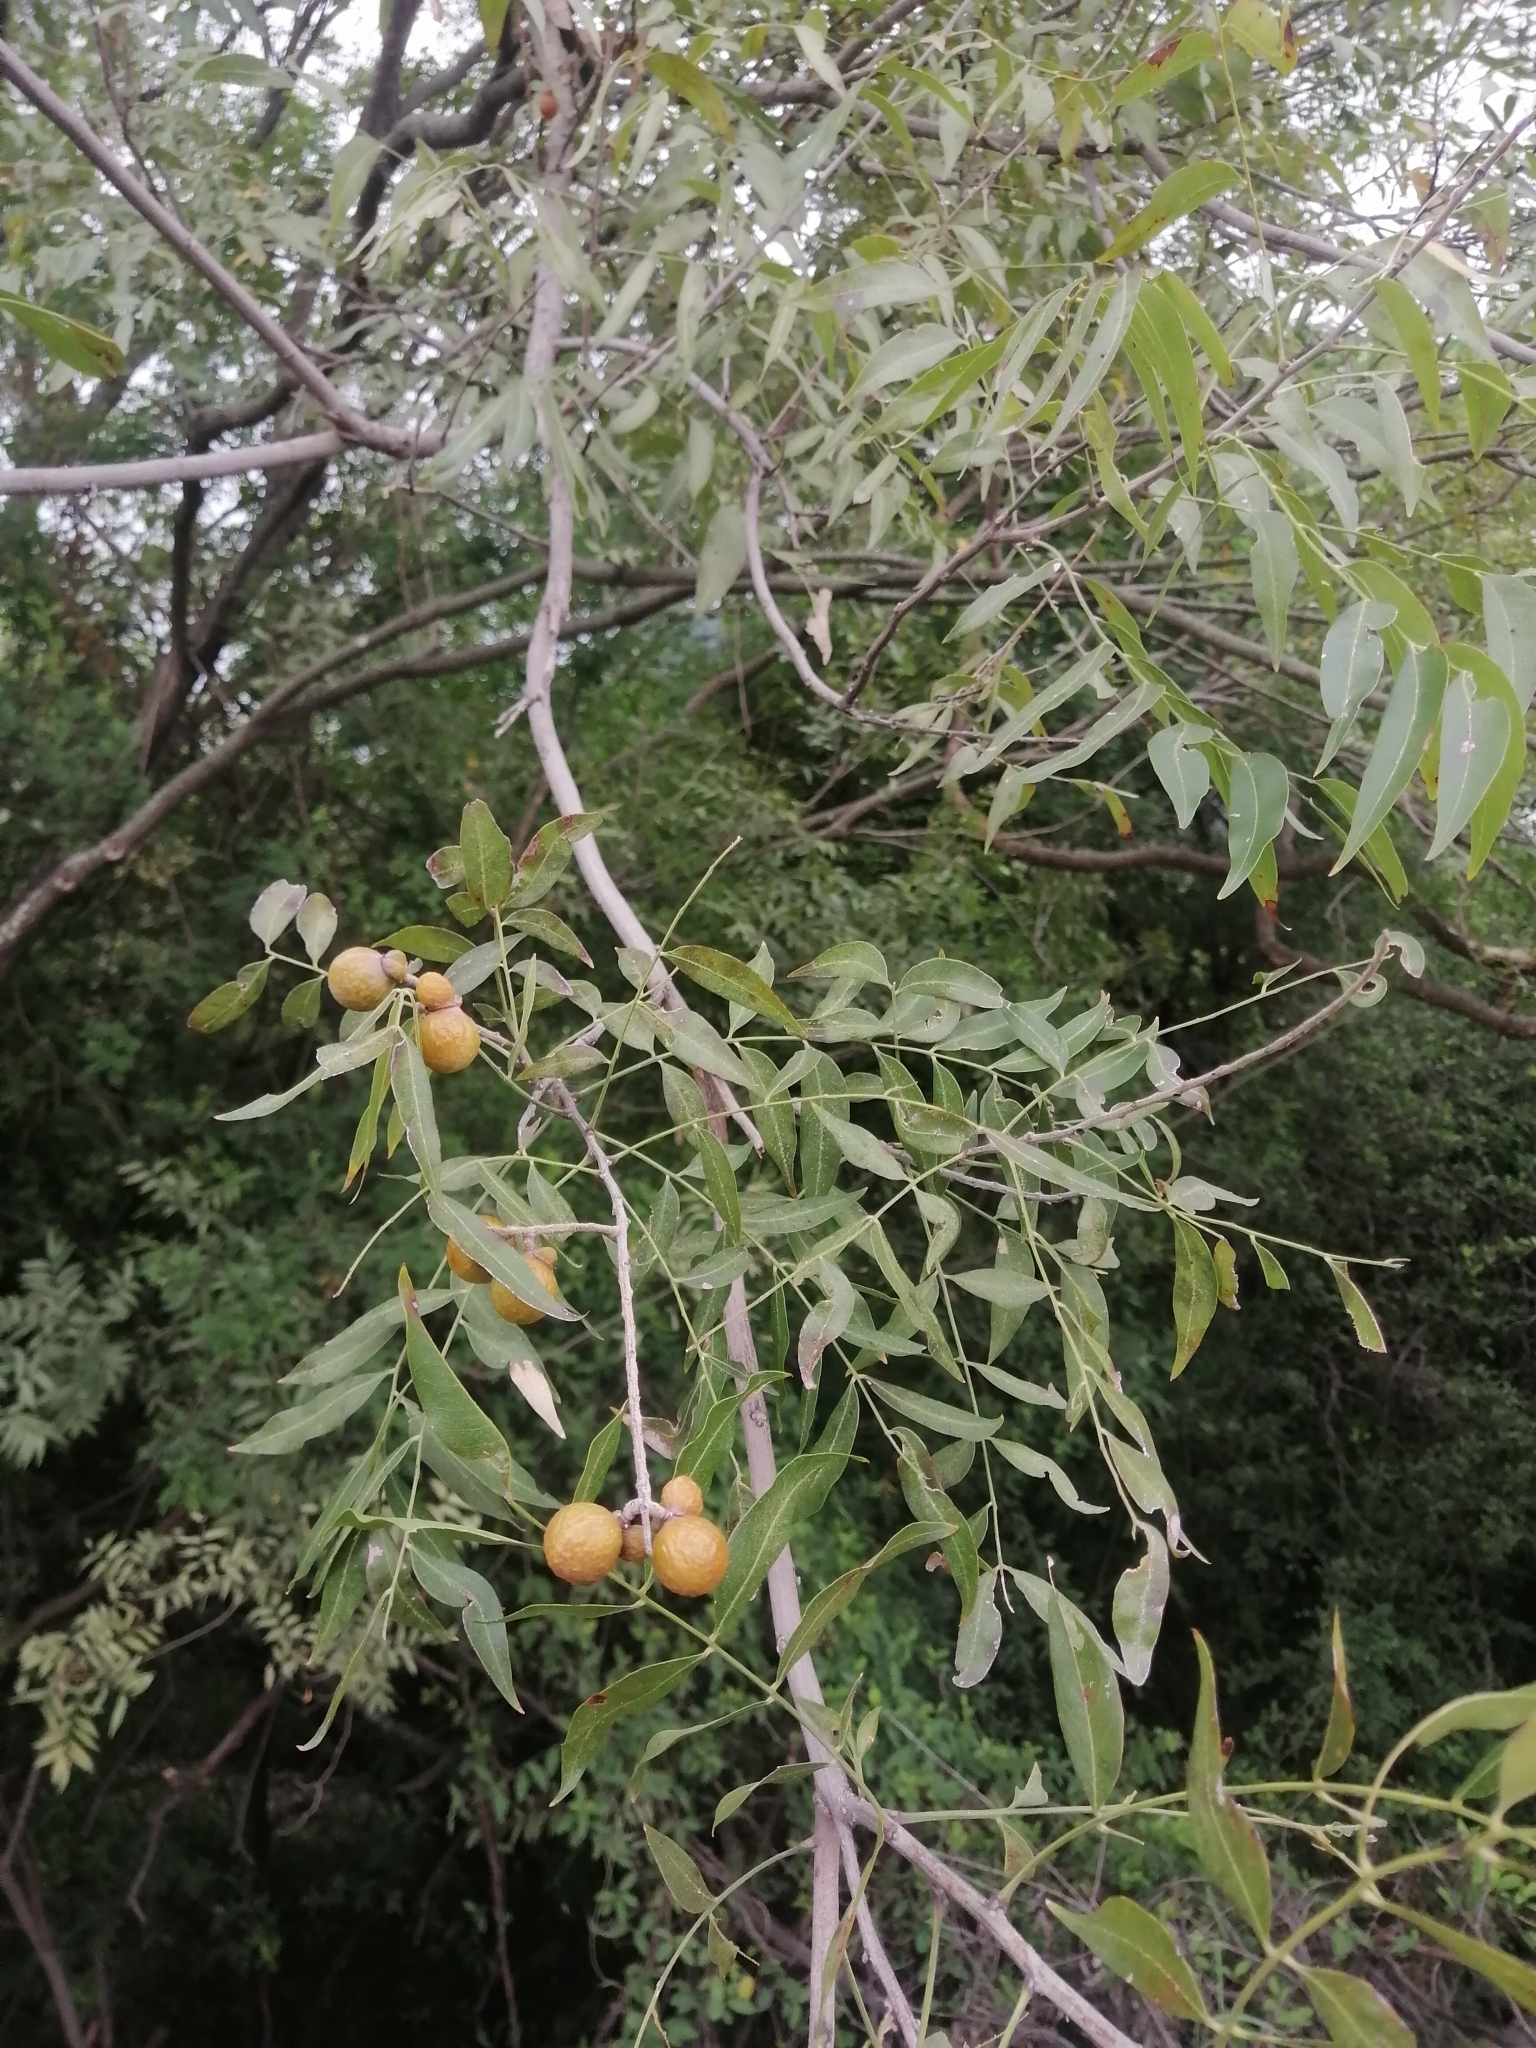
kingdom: Plantae
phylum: Tracheophyta
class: Magnoliopsida
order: Sapindales
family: Sapindaceae
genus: Sapindus
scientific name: Sapindus drummondii
